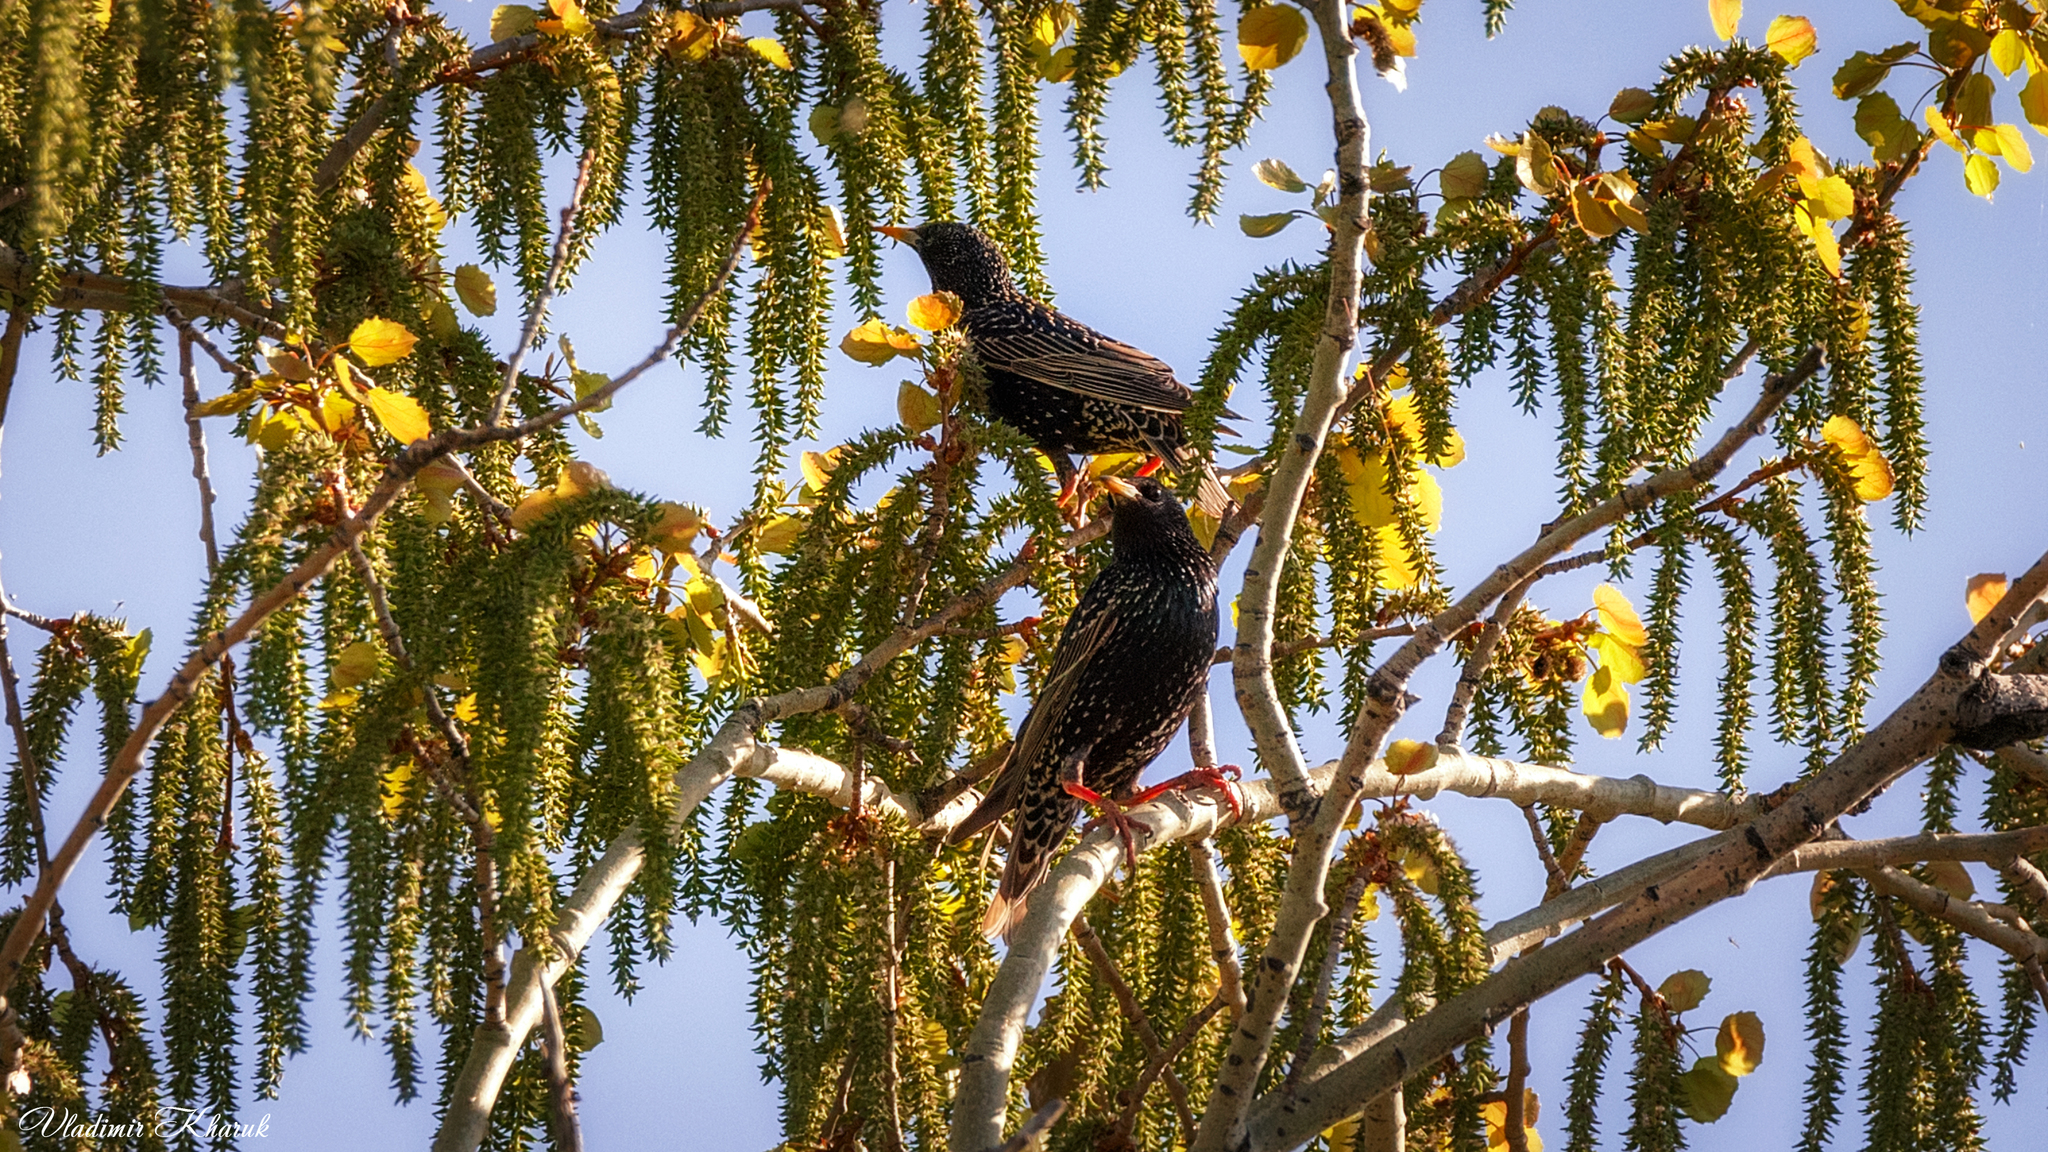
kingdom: Animalia
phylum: Chordata
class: Aves
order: Passeriformes
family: Sturnidae
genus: Sturnus
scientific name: Sturnus vulgaris
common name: Common starling
